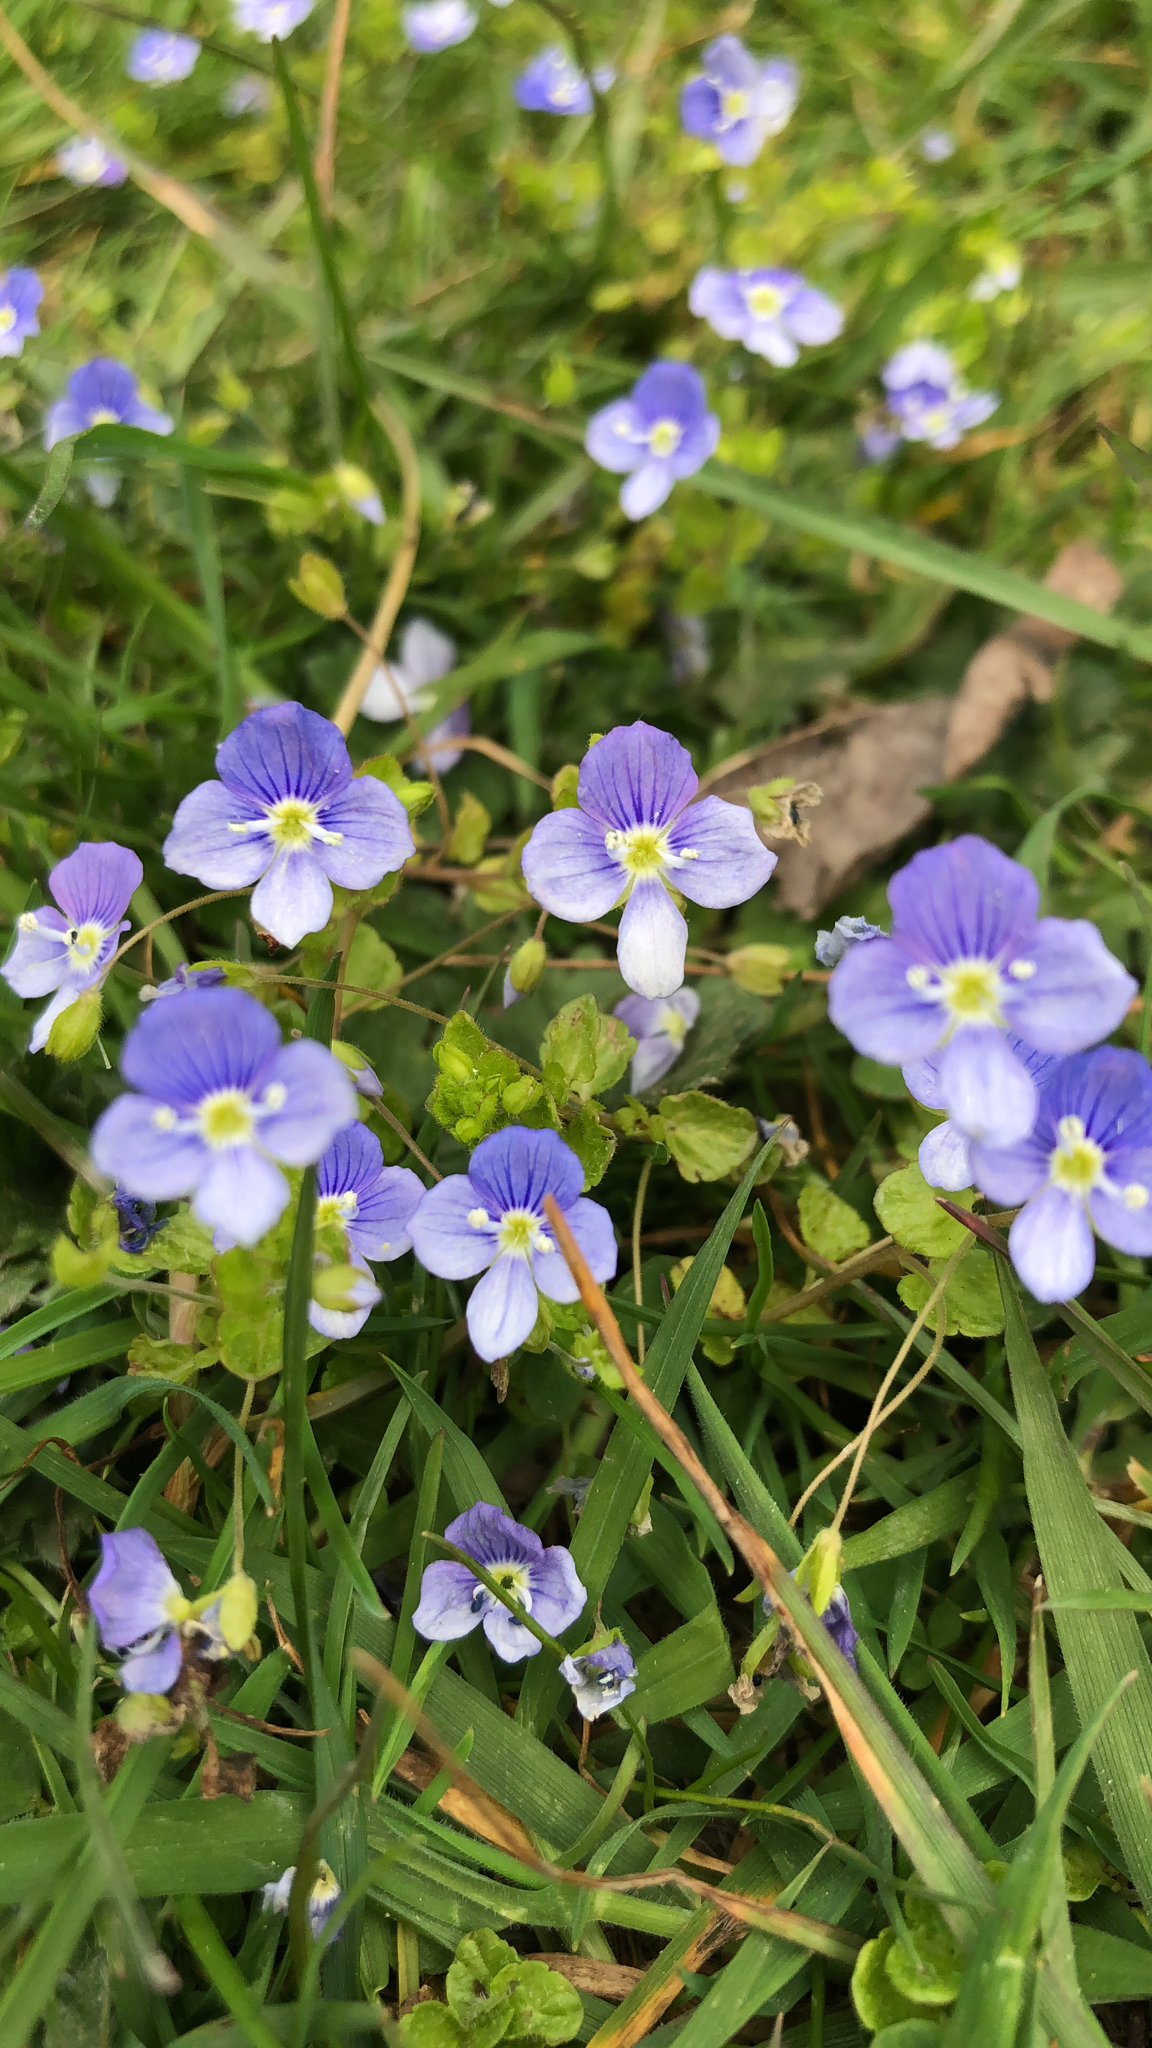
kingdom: Plantae
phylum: Tracheophyta
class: Magnoliopsida
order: Lamiales
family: Plantaginaceae
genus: Veronica
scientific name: Veronica filiformis
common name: Slender speedwell
